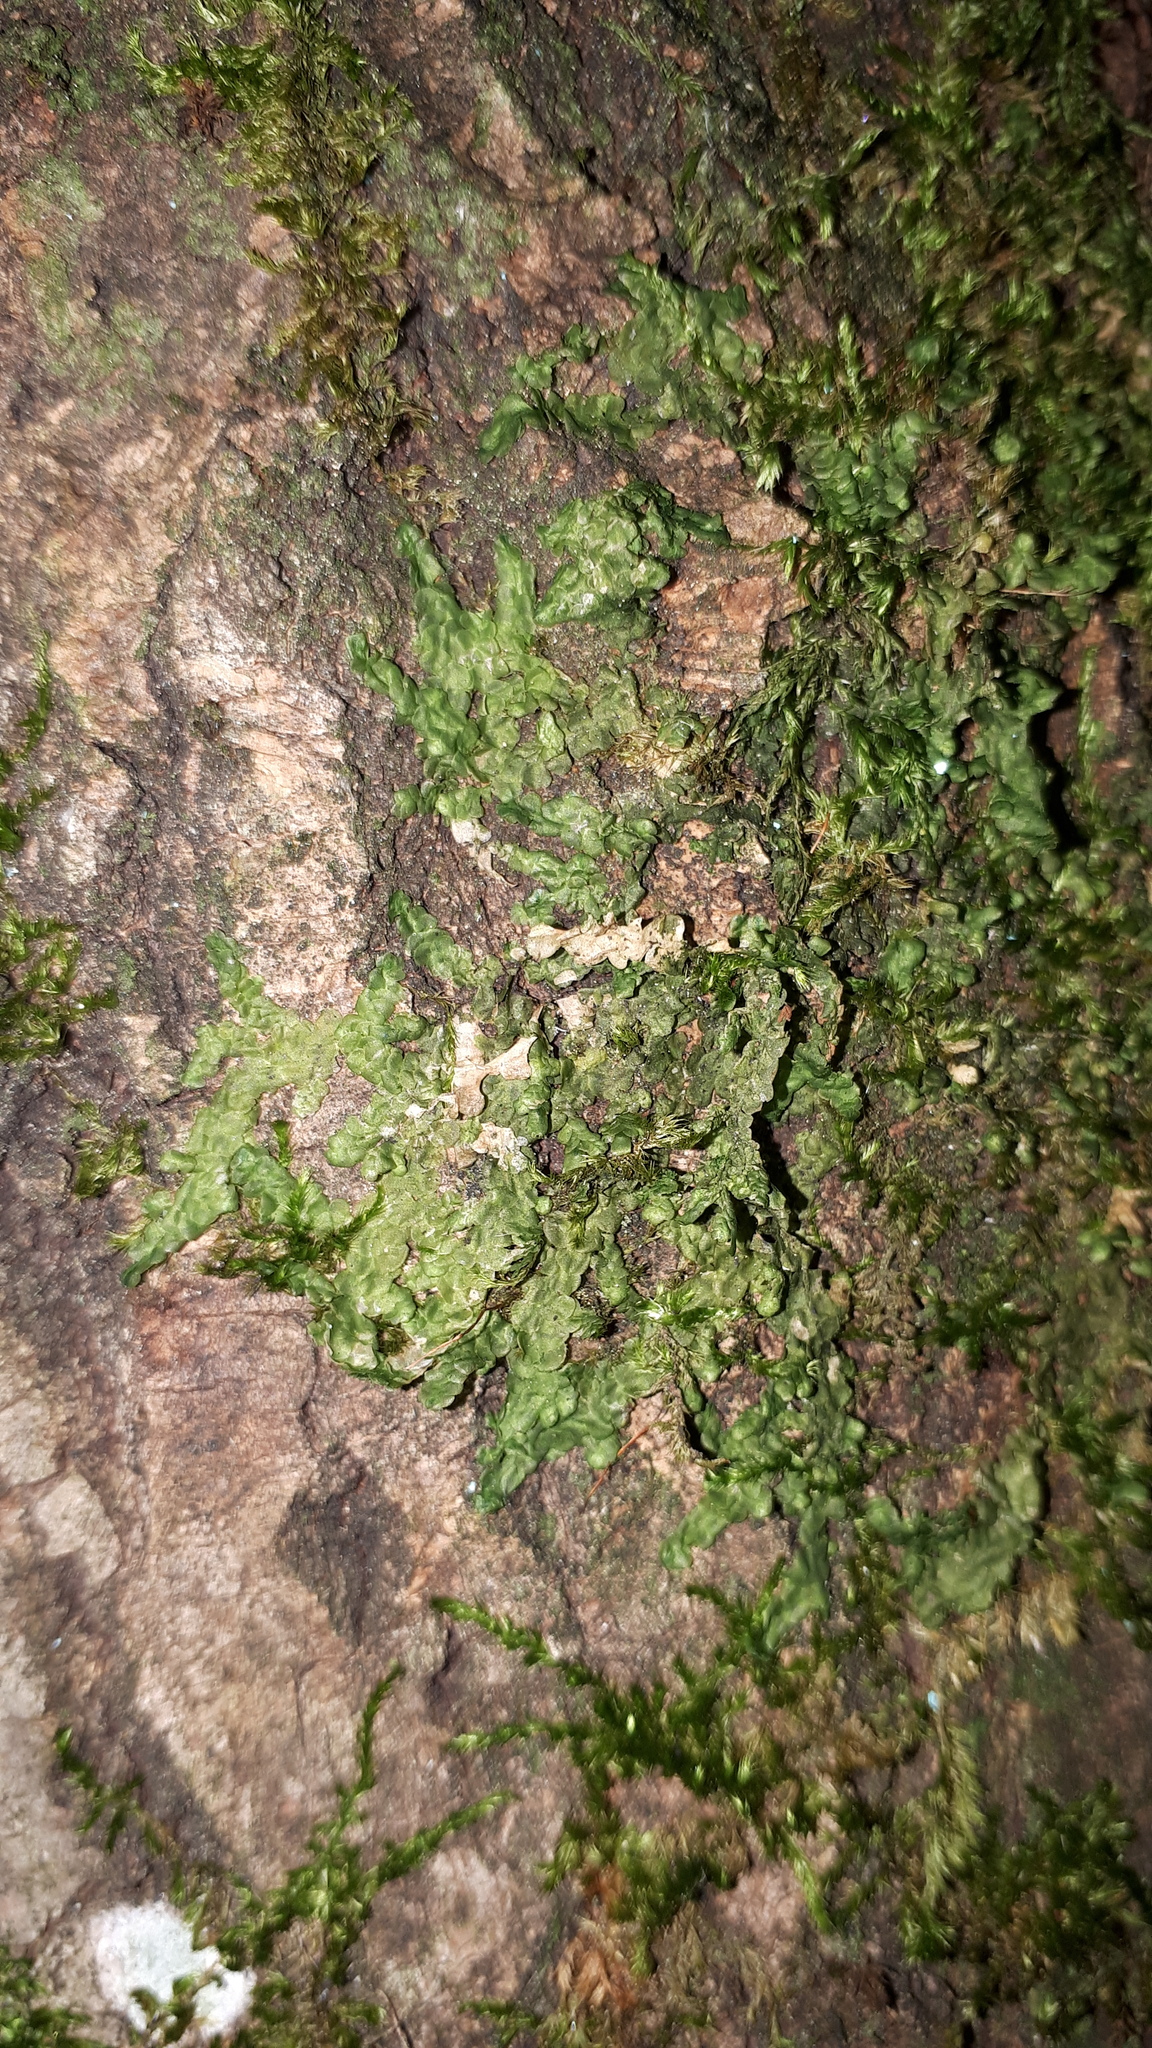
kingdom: Plantae
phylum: Marchantiophyta
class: Jungermanniopsida
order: Porellales
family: Radulaceae
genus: Radula
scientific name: Radula complanata
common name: Flat-leaved scalewort
